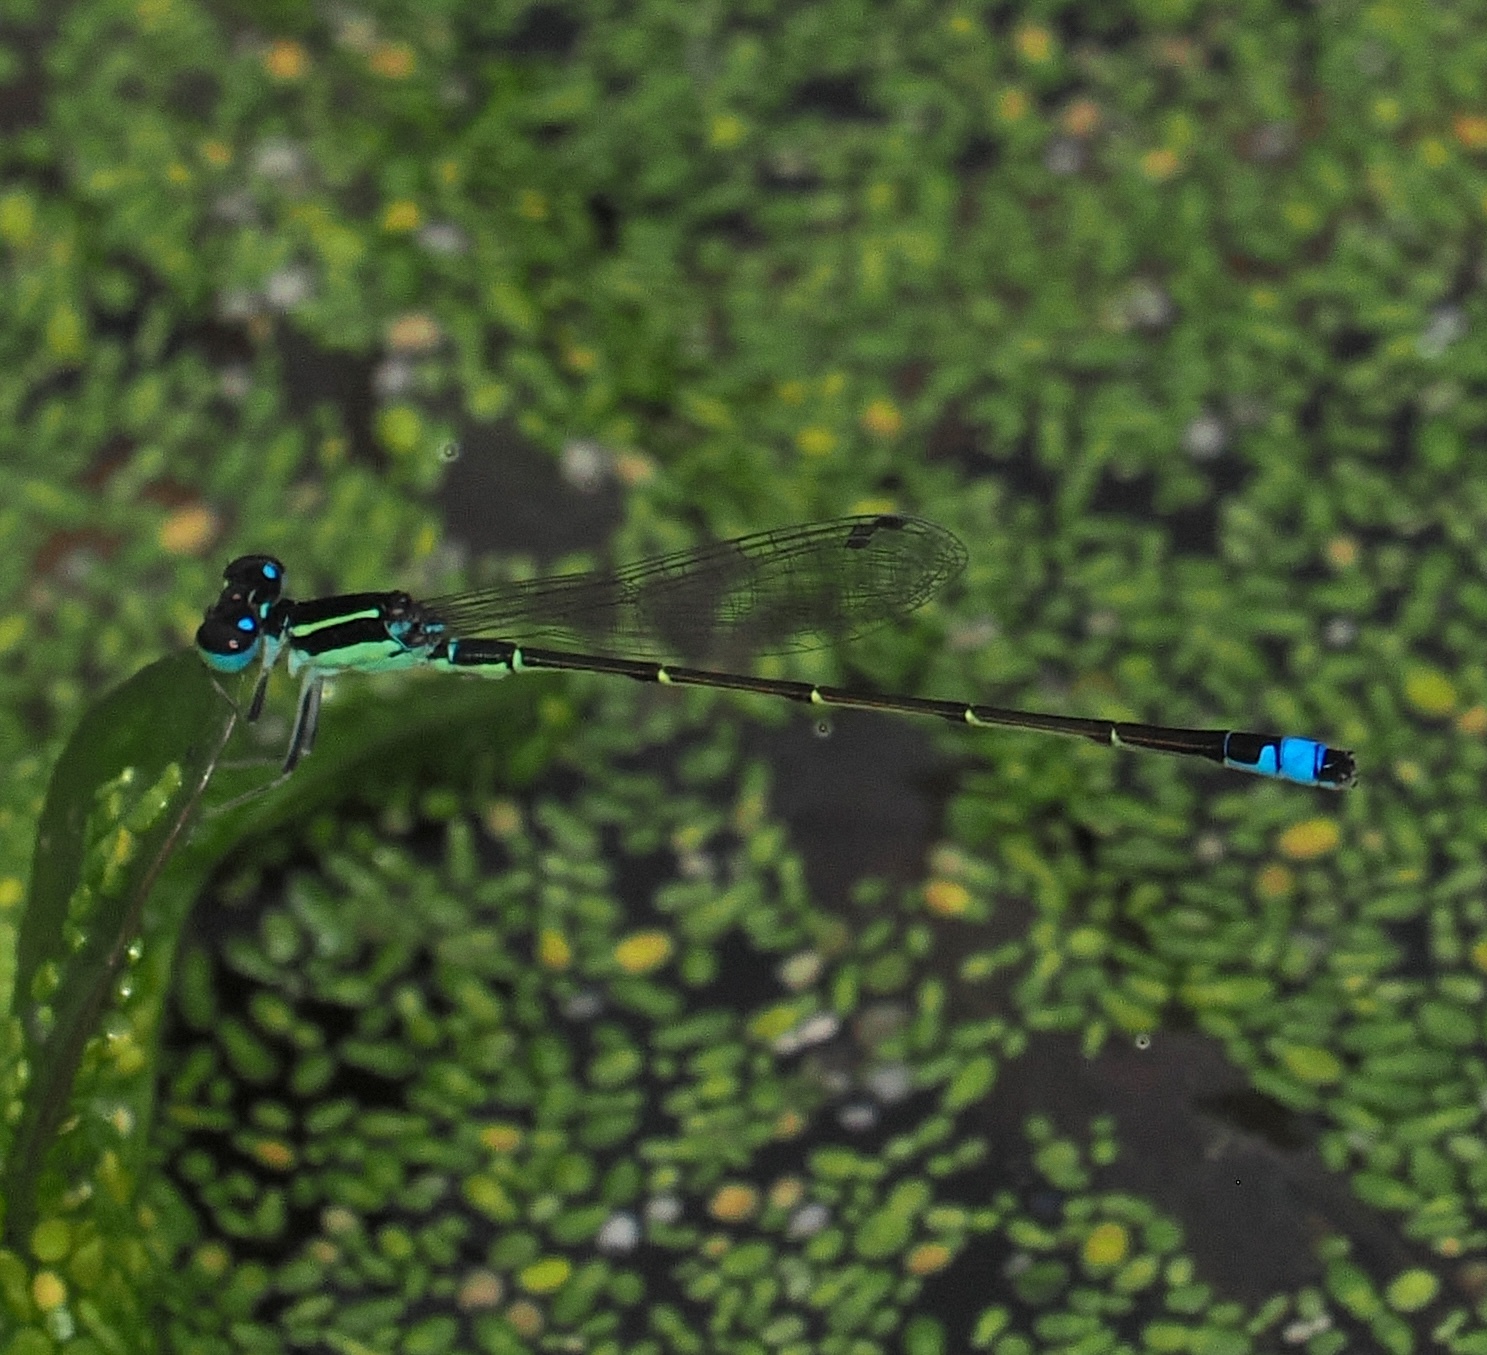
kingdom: Animalia
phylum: Arthropoda
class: Insecta
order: Odonata
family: Coenagrionidae
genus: Ischnura
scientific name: Ischnura capreolus
